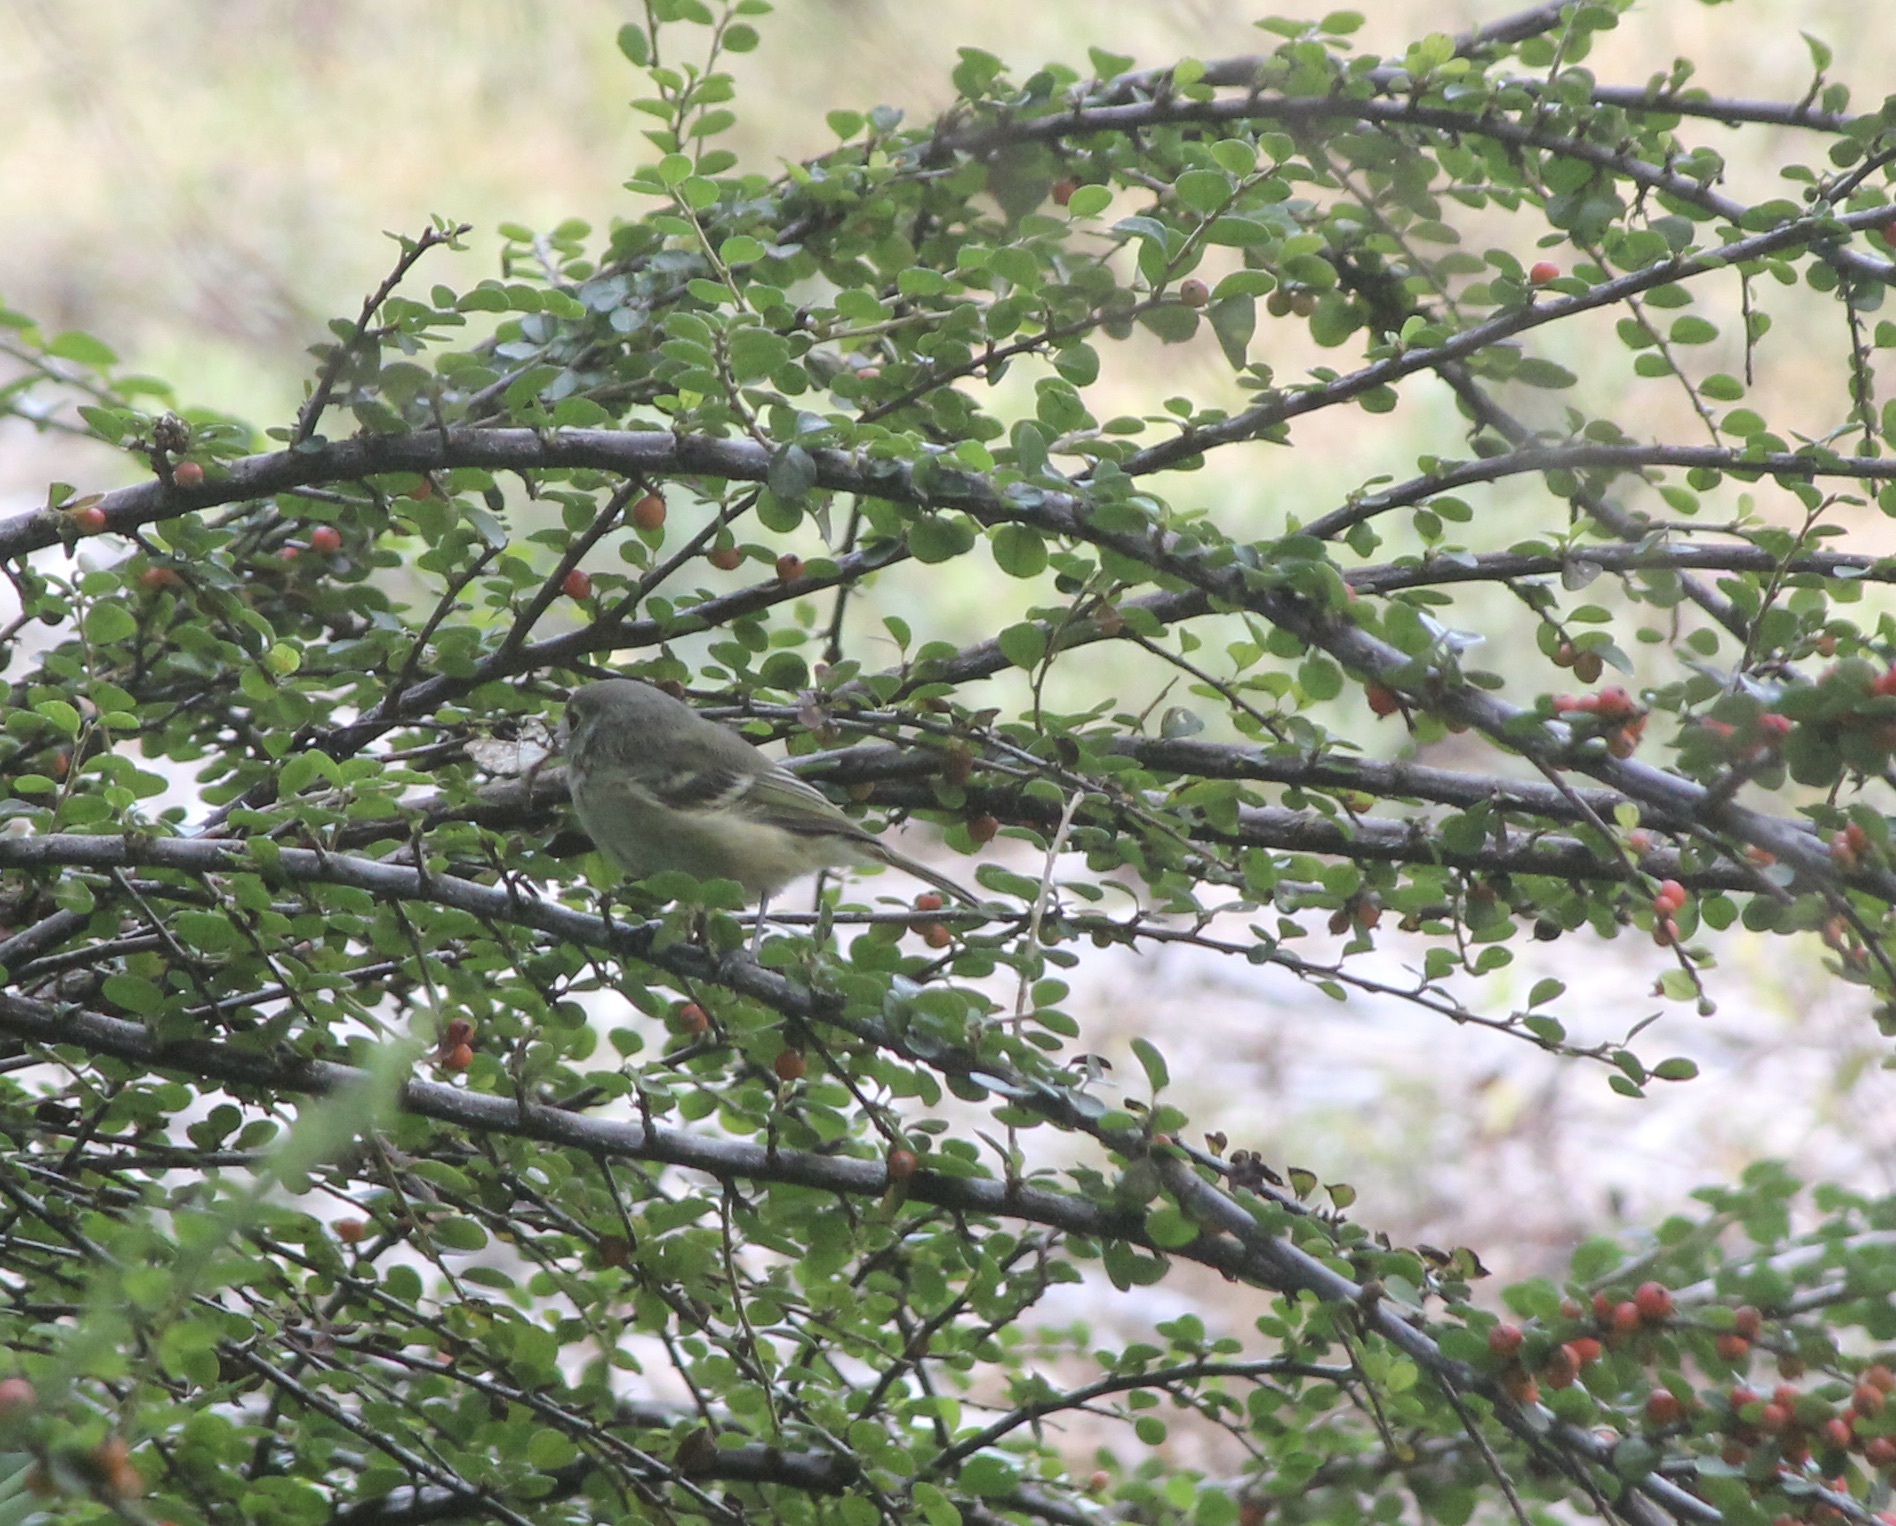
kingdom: Animalia
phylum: Chordata
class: Aves
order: Passeriformes
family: Vireonidae
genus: Vireo
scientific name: Vireo huttoni
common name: Hutton's vireo
